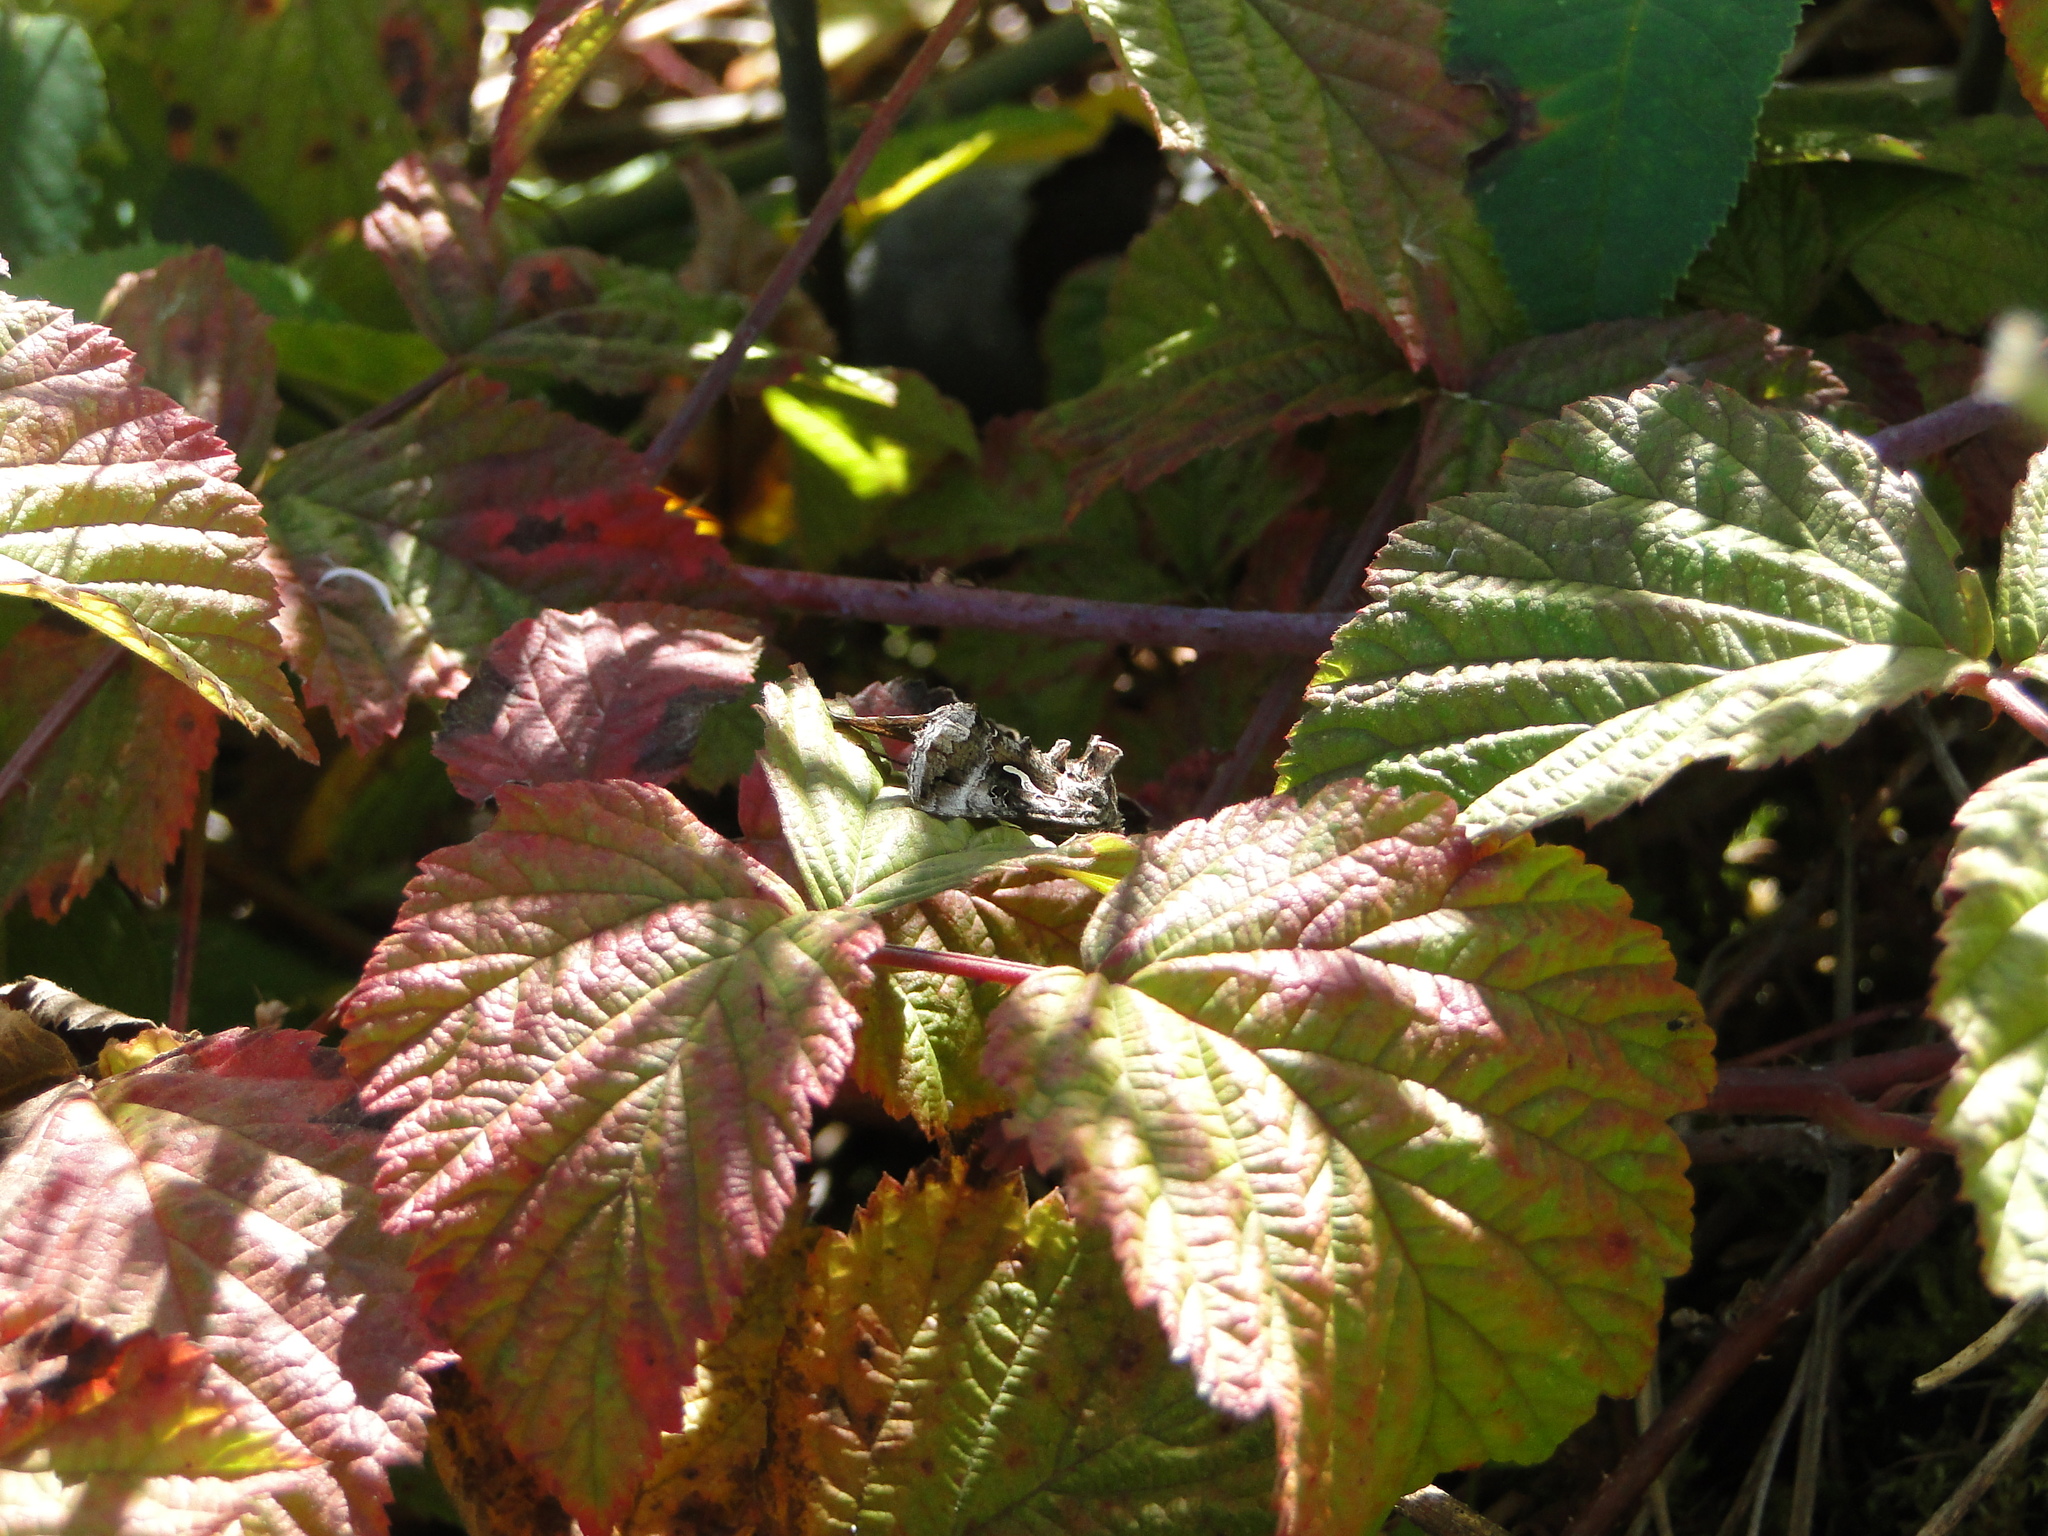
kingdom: Animalia
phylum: Arthropoda
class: Insecta
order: Lepidoptera
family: Noctuidae
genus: Autographa
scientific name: Autographa gamma
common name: Silver y
